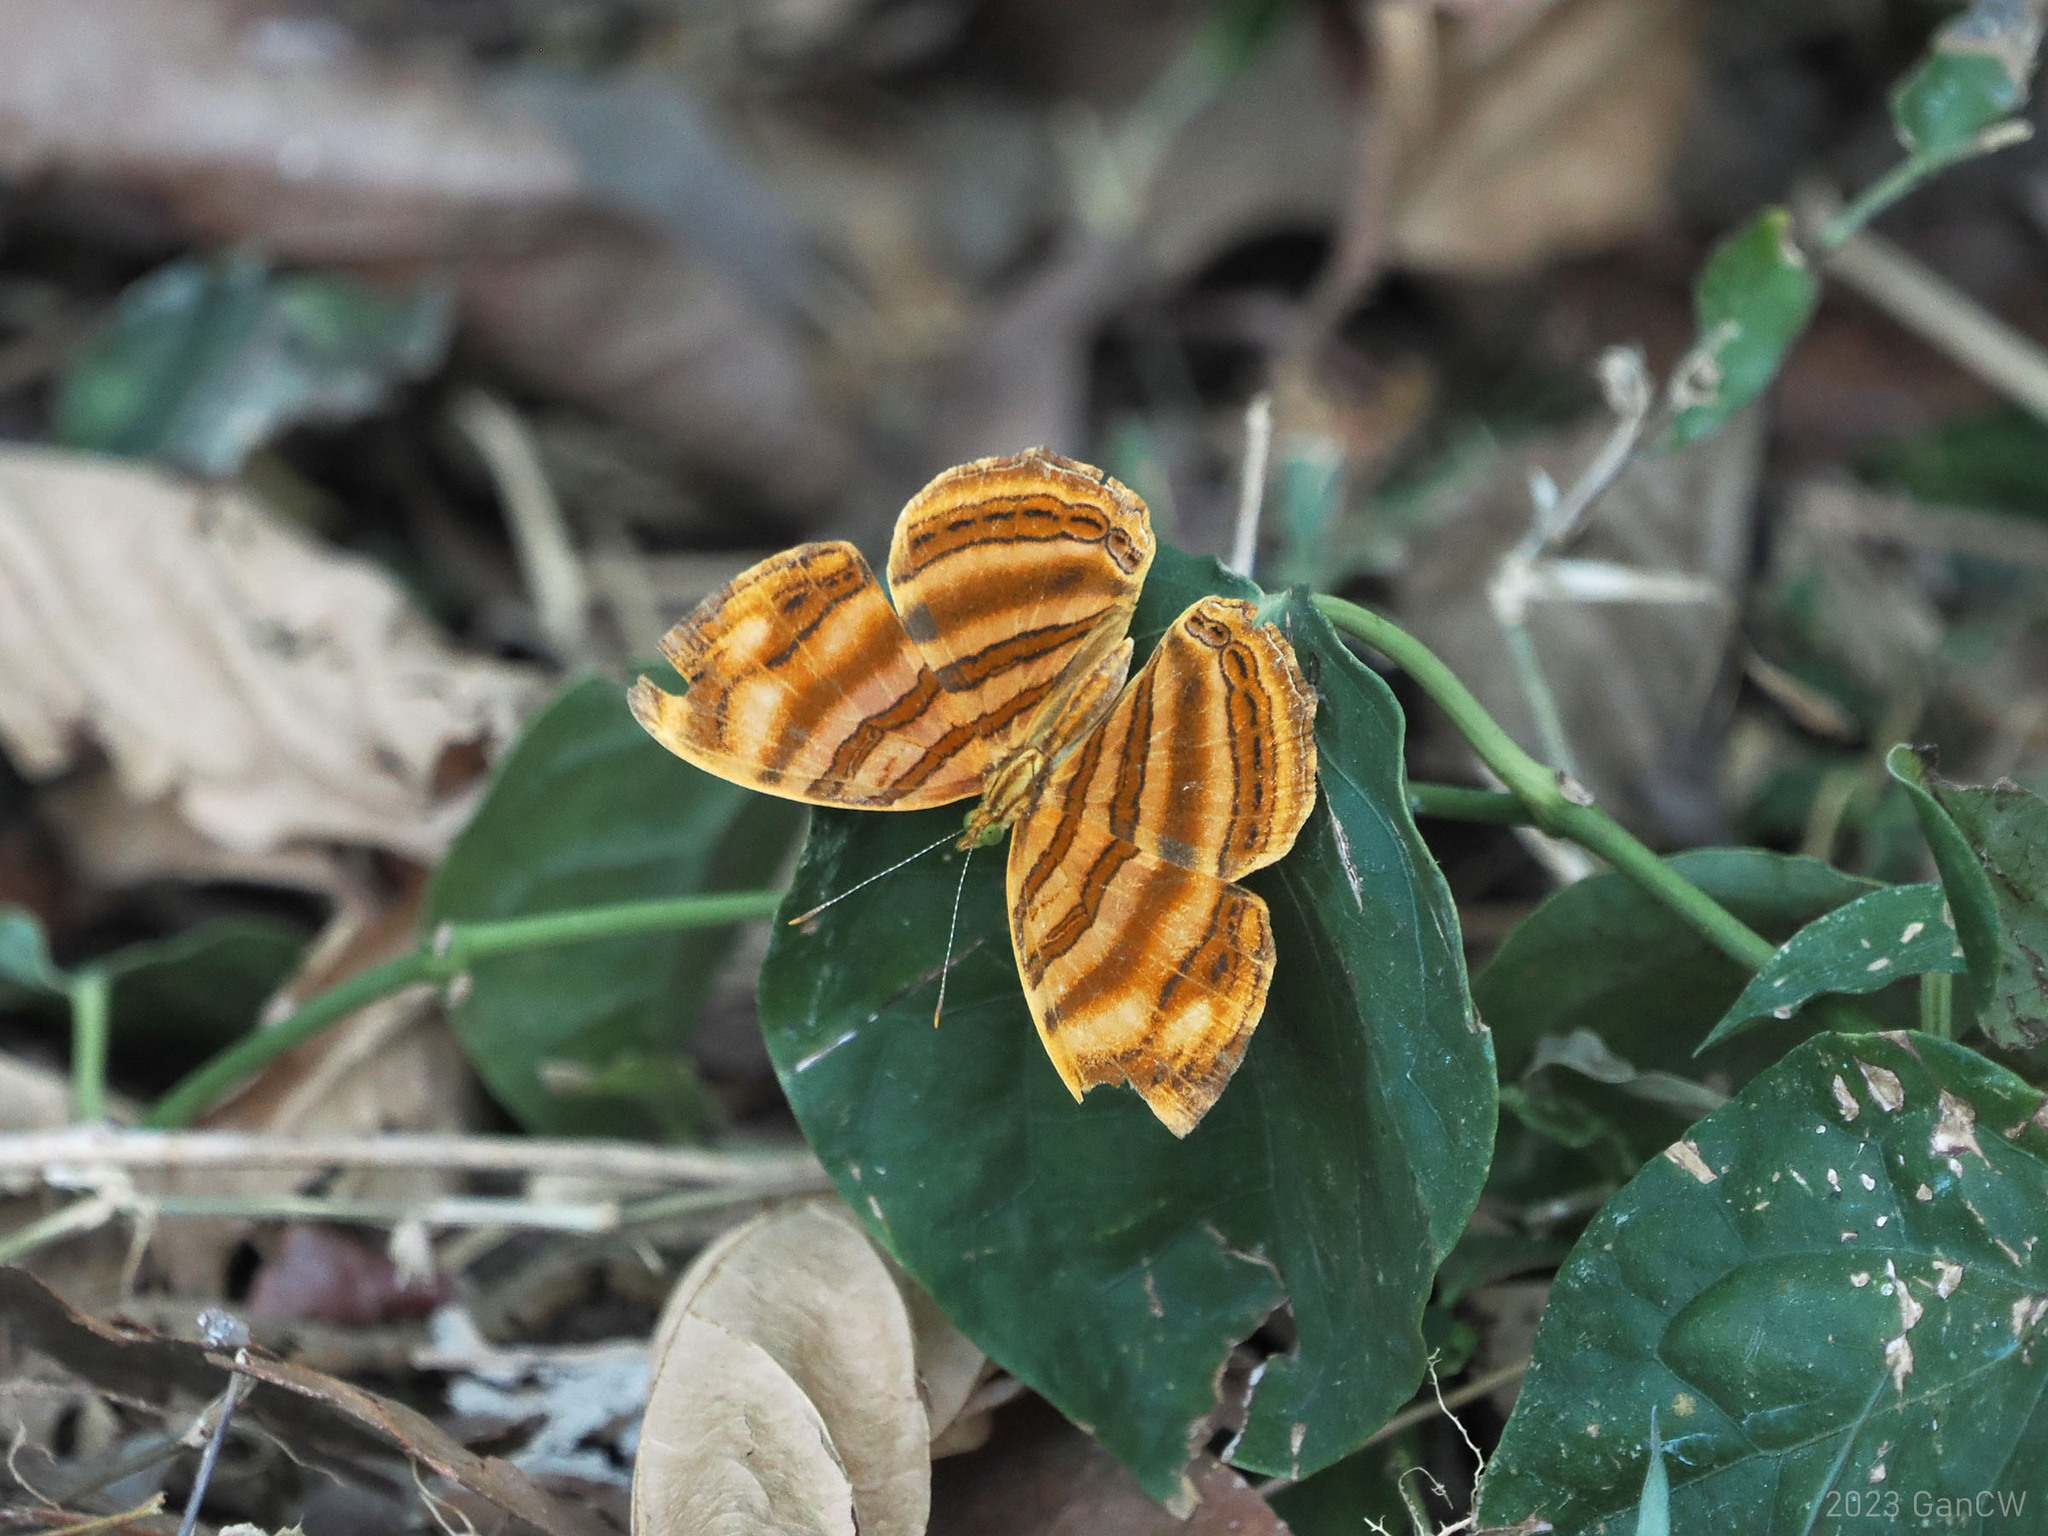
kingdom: Animalia
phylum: Arthropoda
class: Insecta
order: Lepidoptera
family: Nymphalidae
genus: Chersonesia
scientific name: Chersonesia rahria
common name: Wavy maplet
